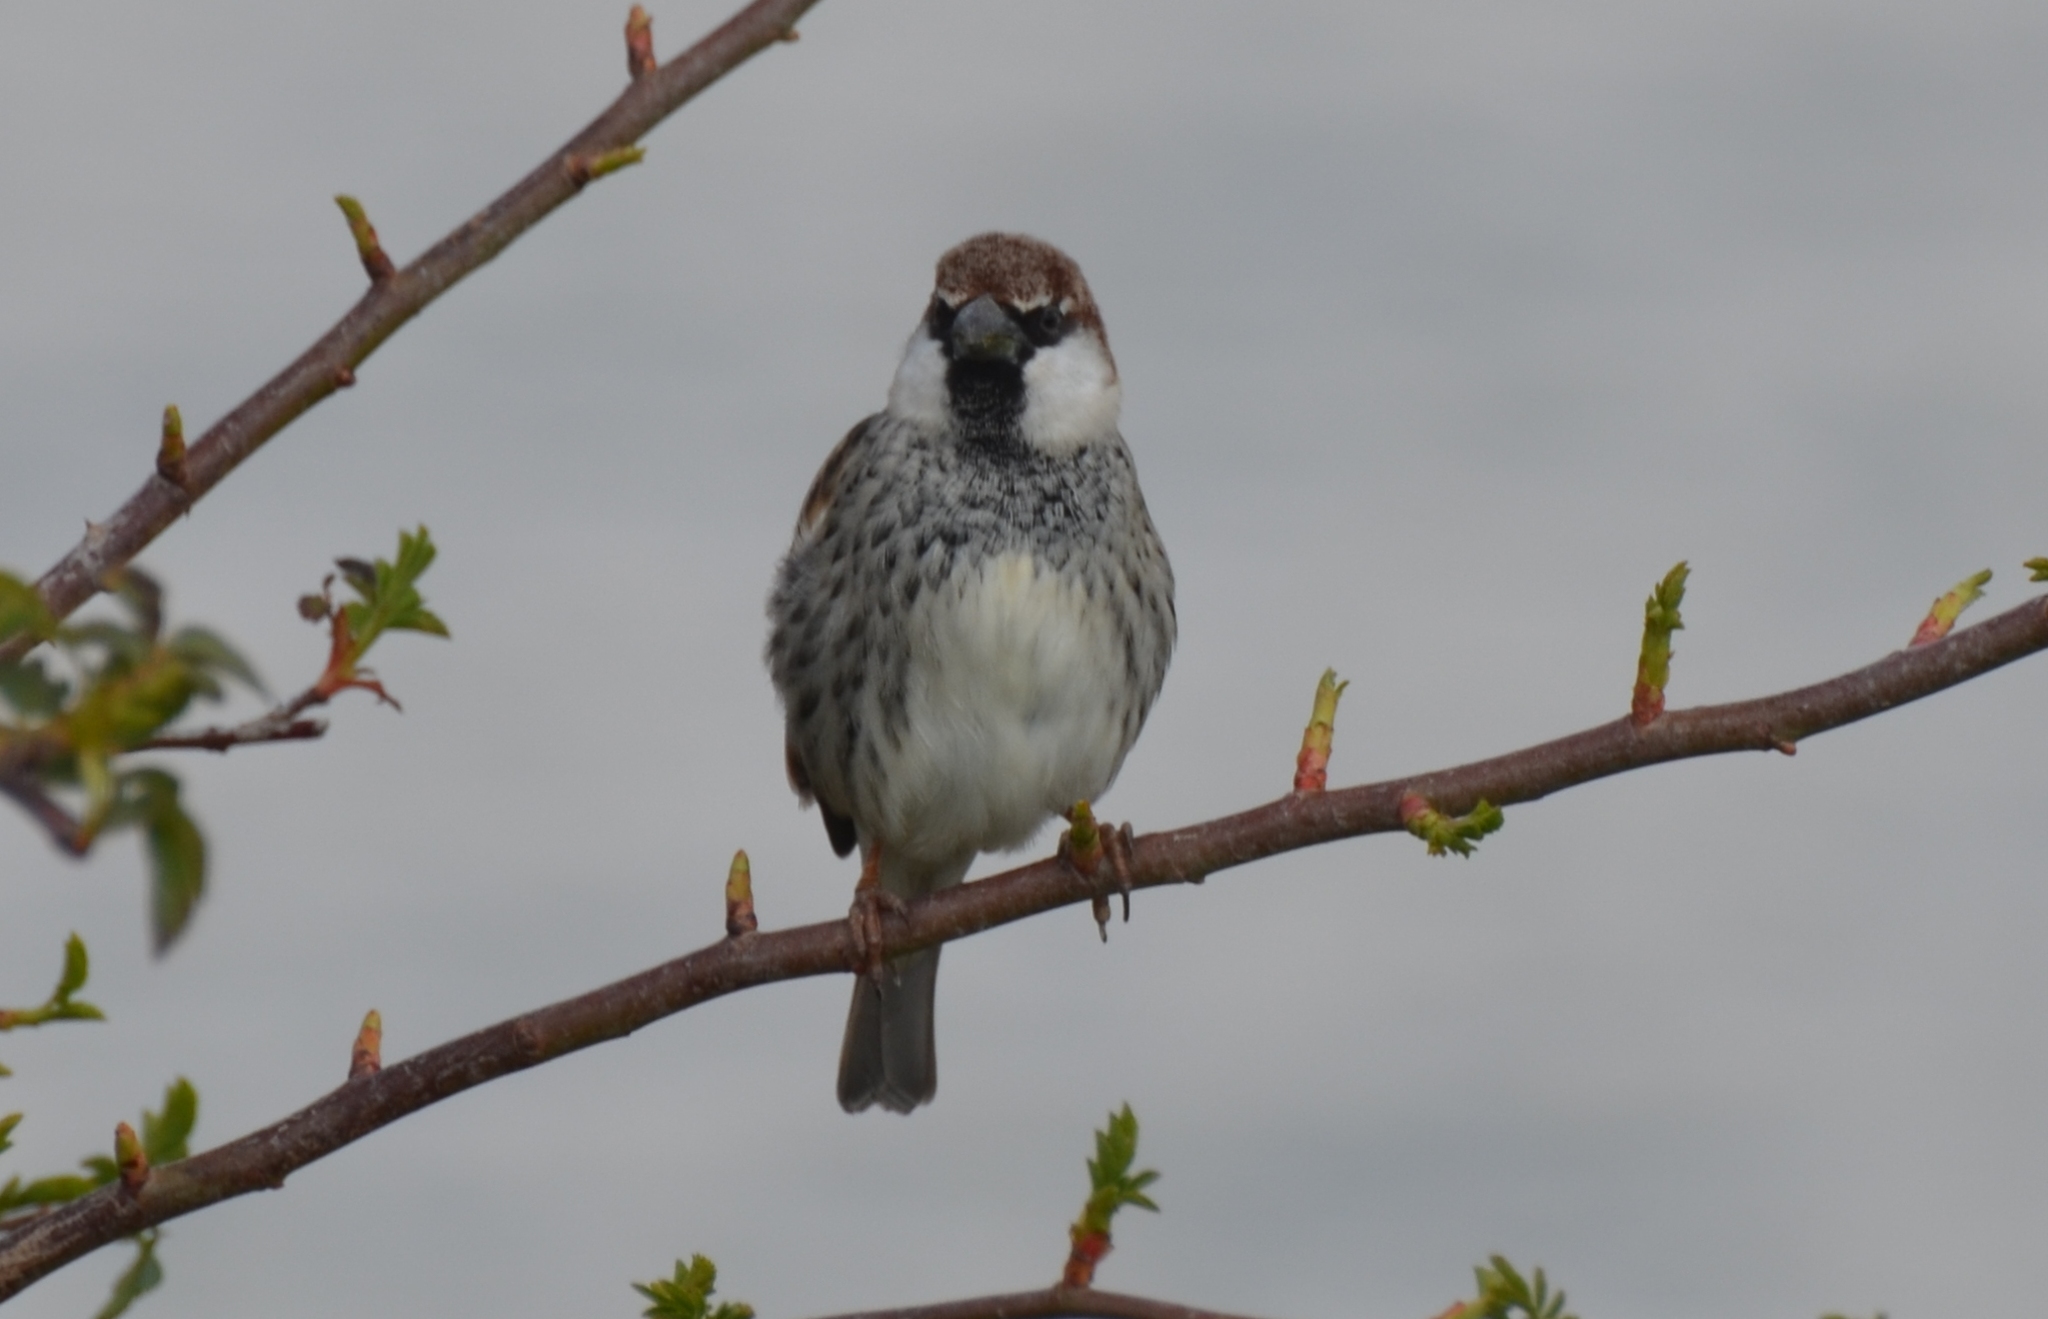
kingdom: Animalia
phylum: Chordata
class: Aves
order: Passeriformes
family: Passeridae
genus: Passer
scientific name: Passer hispaniolensis
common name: Spanish sparrow
